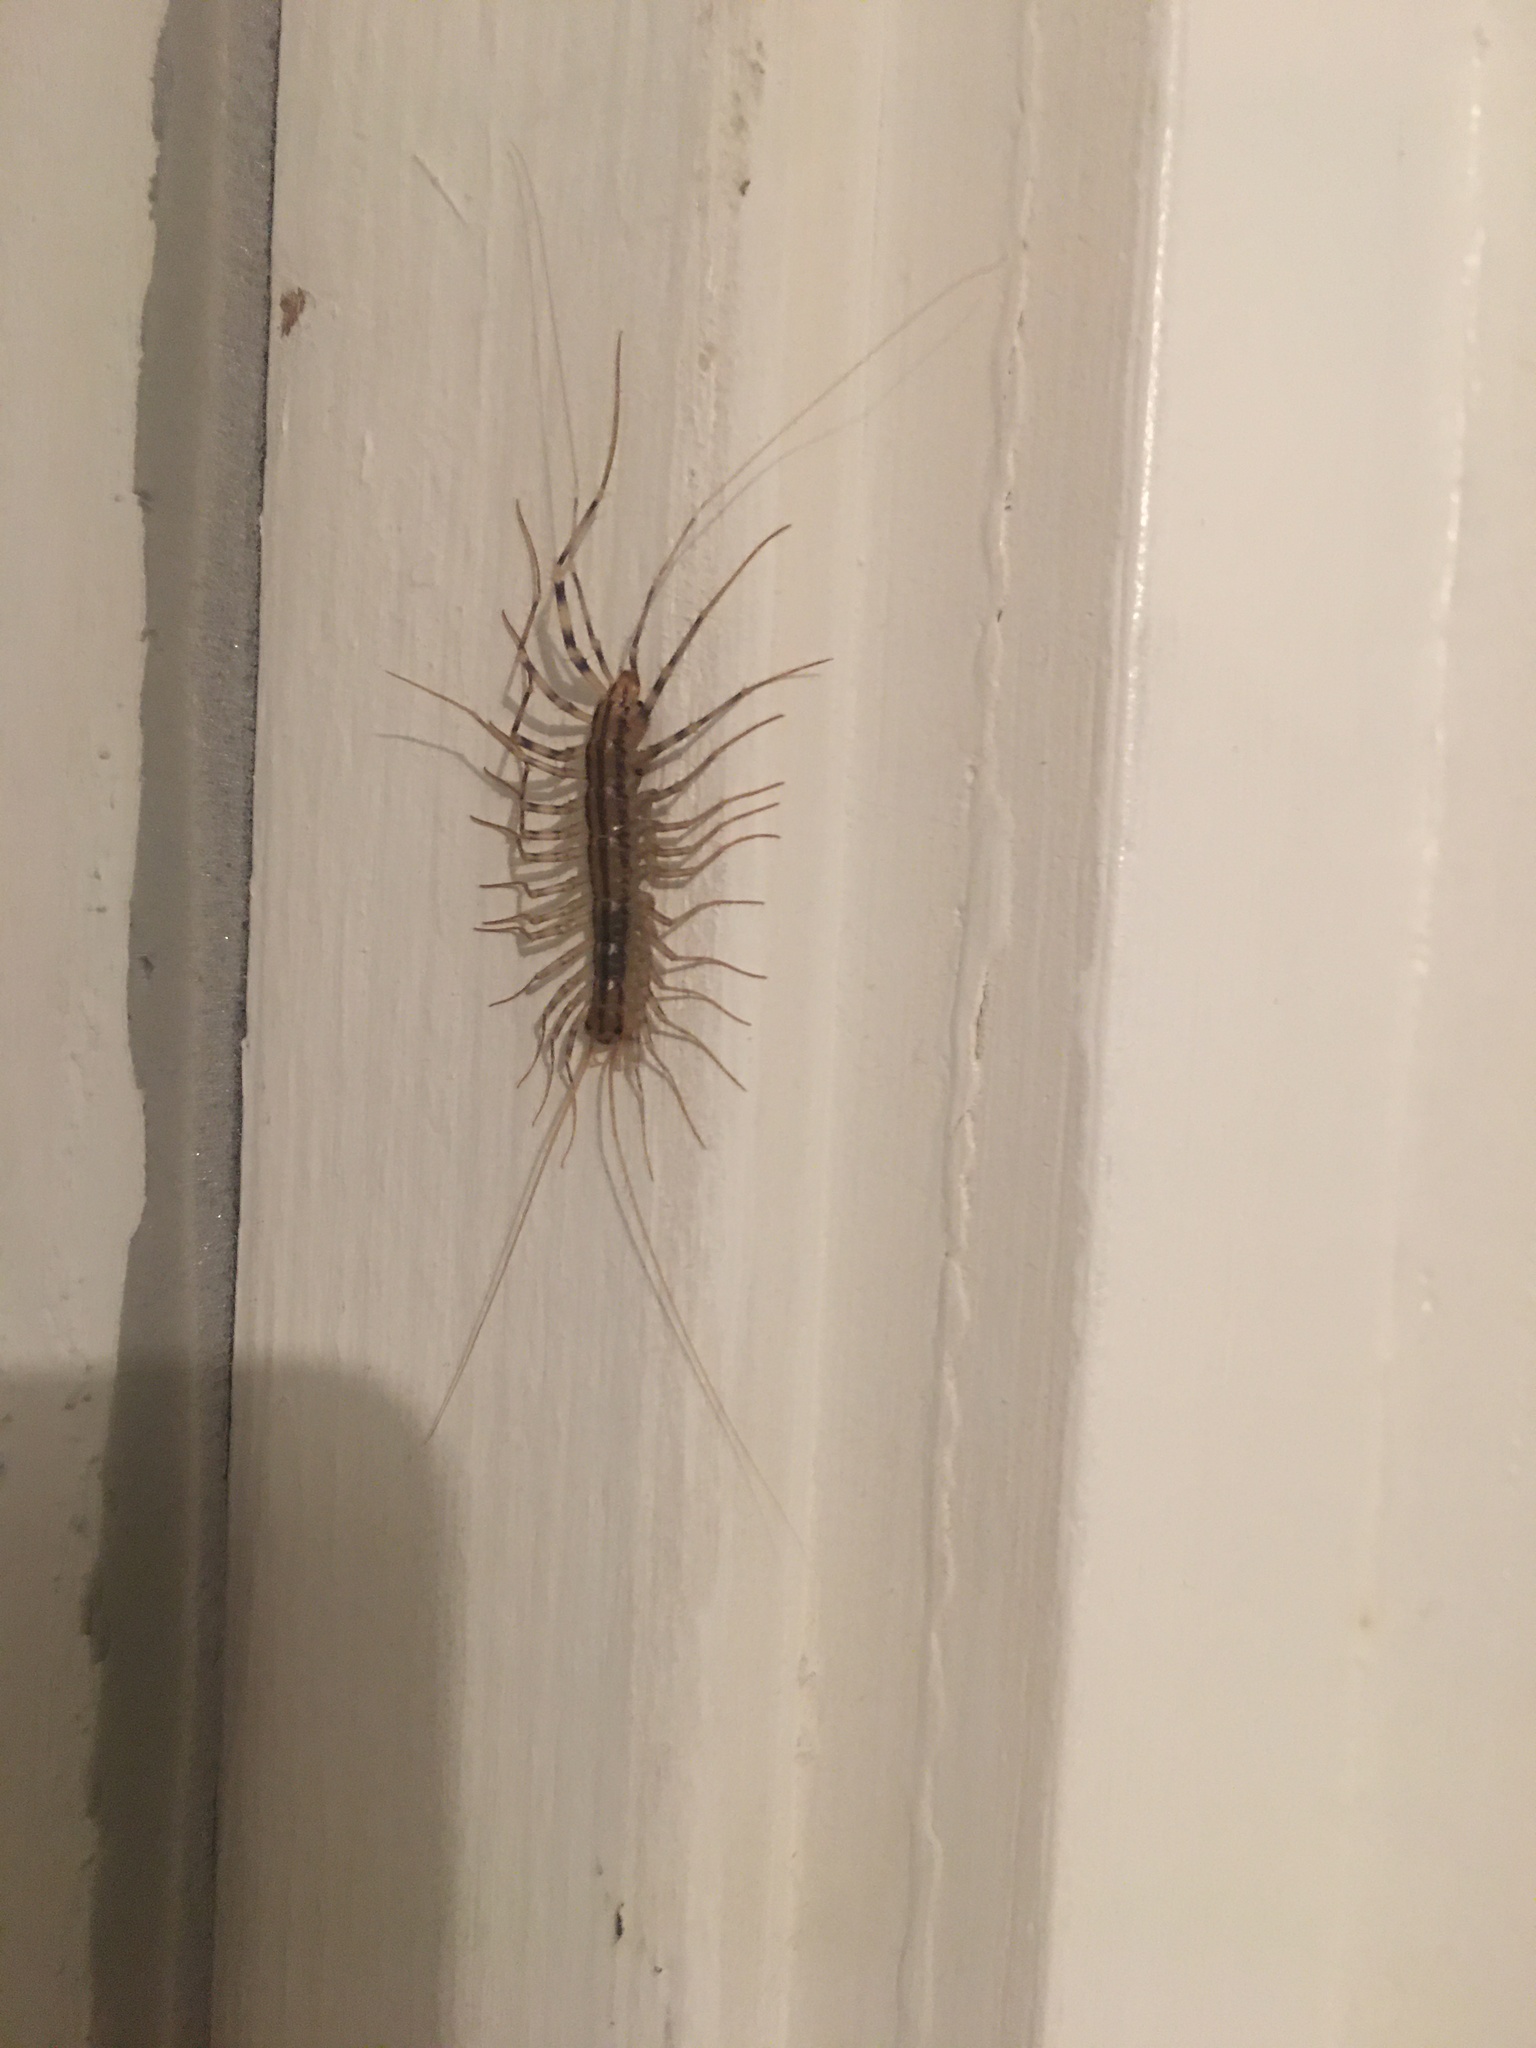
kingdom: Animalia
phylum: Arthropoda
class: Chilopoda
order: Scutigeromorpha
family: Scutigeridae
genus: Scutigera
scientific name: Scutigera coleoptrata
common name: House centipede
